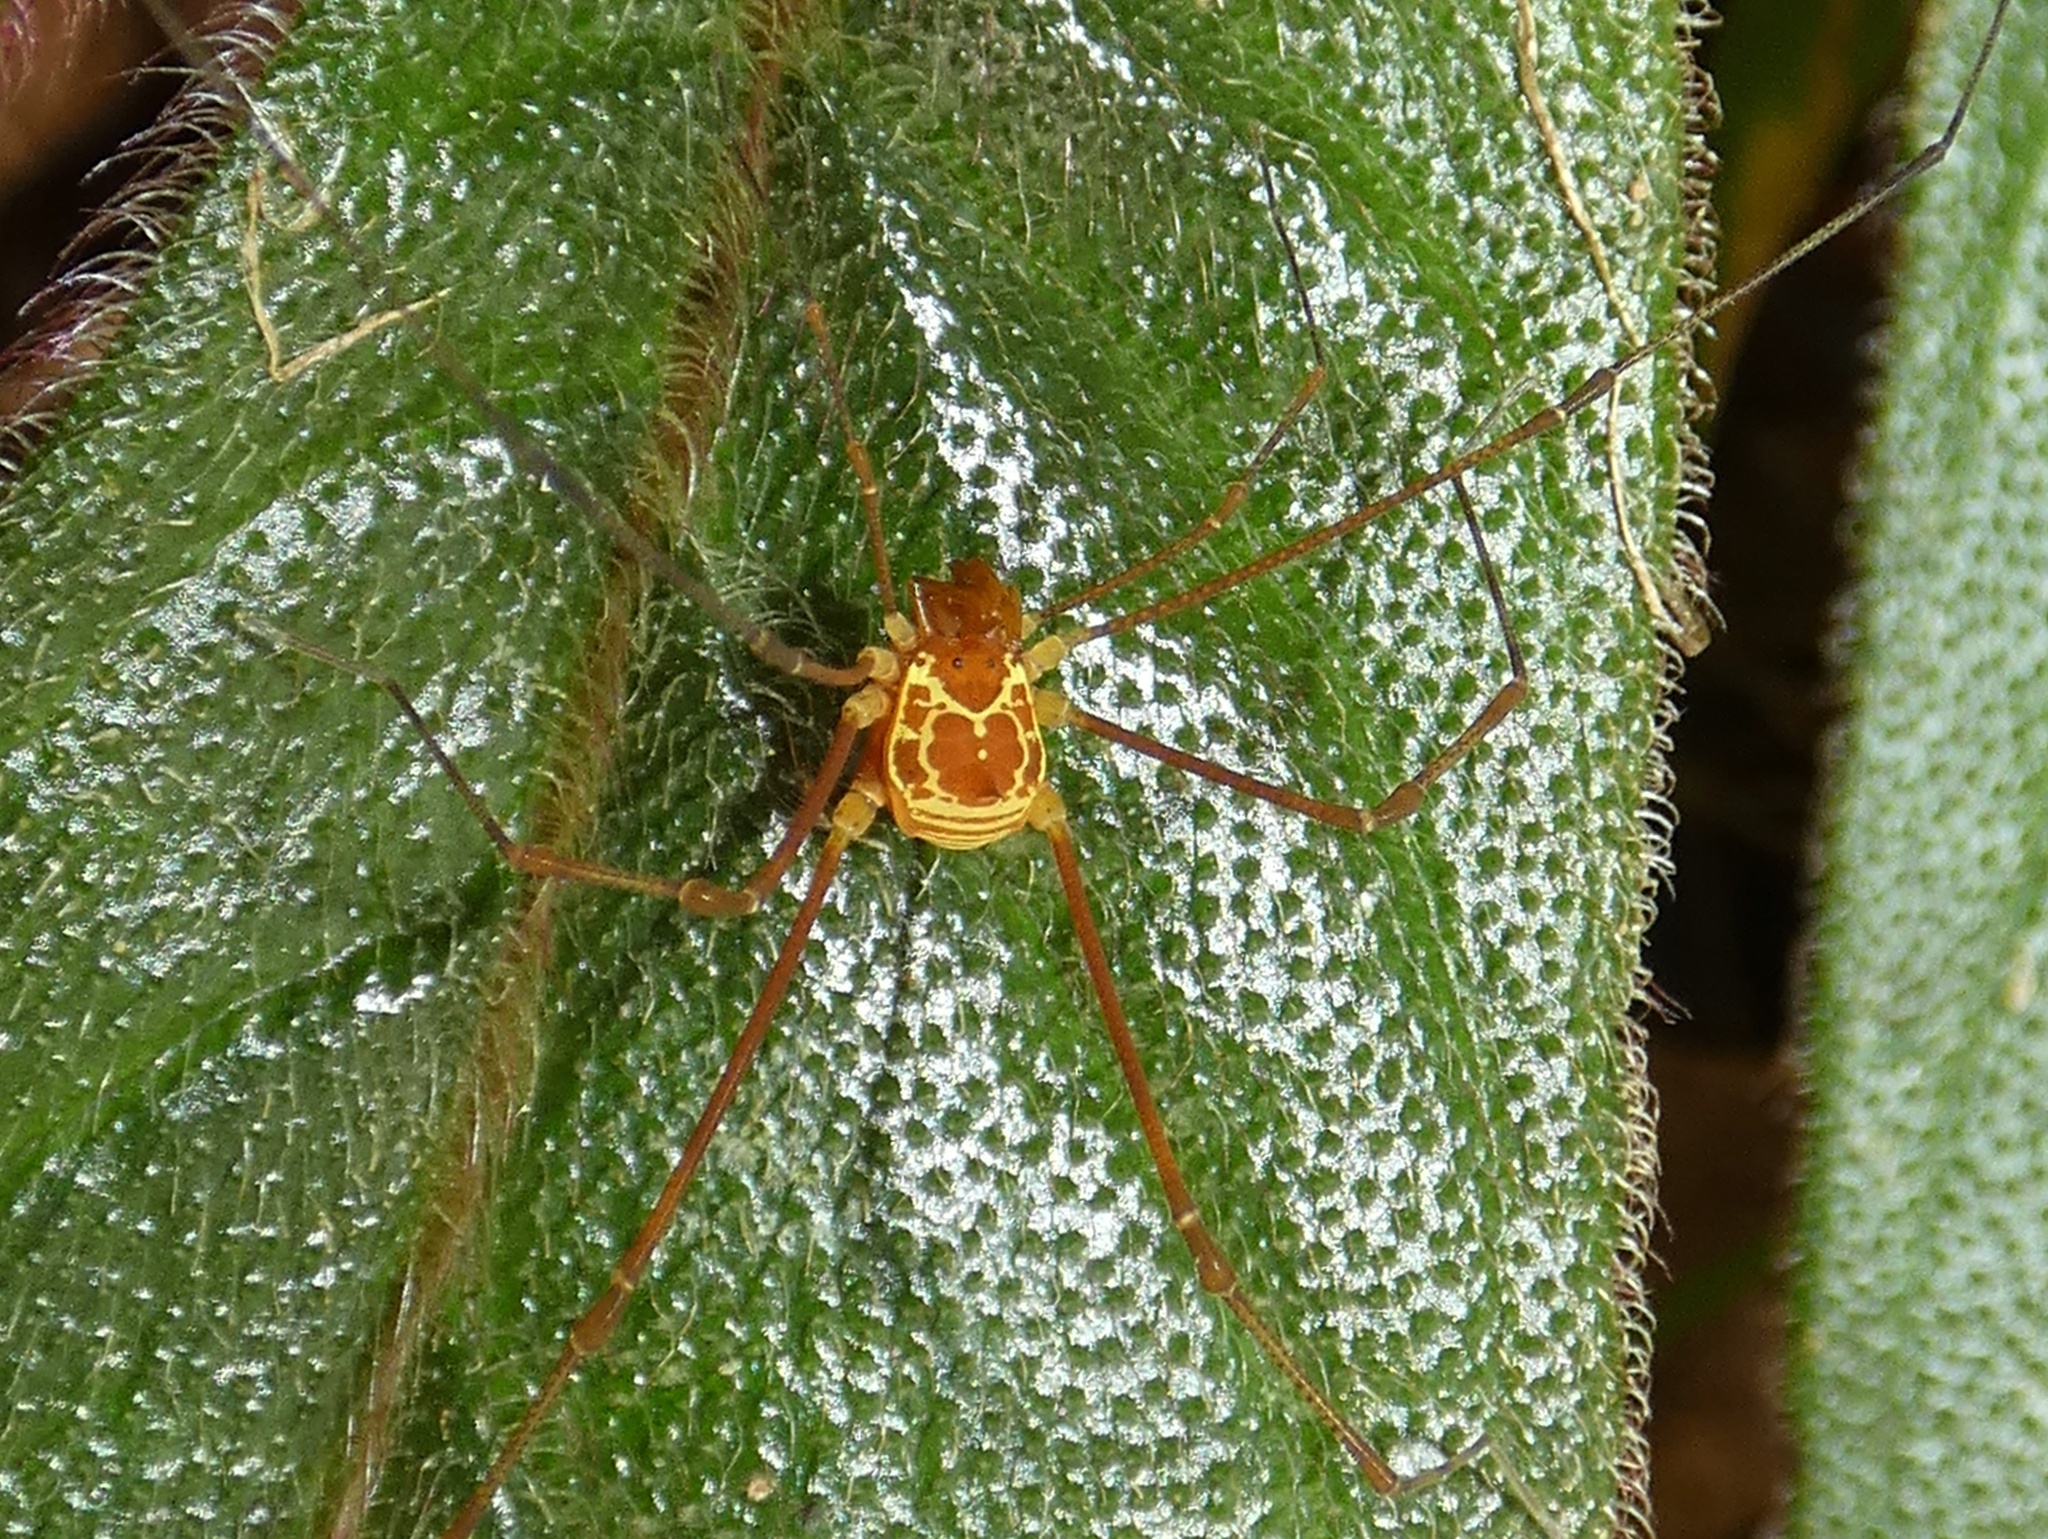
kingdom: Animalia
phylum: Arthropoda
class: Arachnida
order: Opiliones
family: Cosmetidae
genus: Cosmetus
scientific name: Cosmetus burbayar
